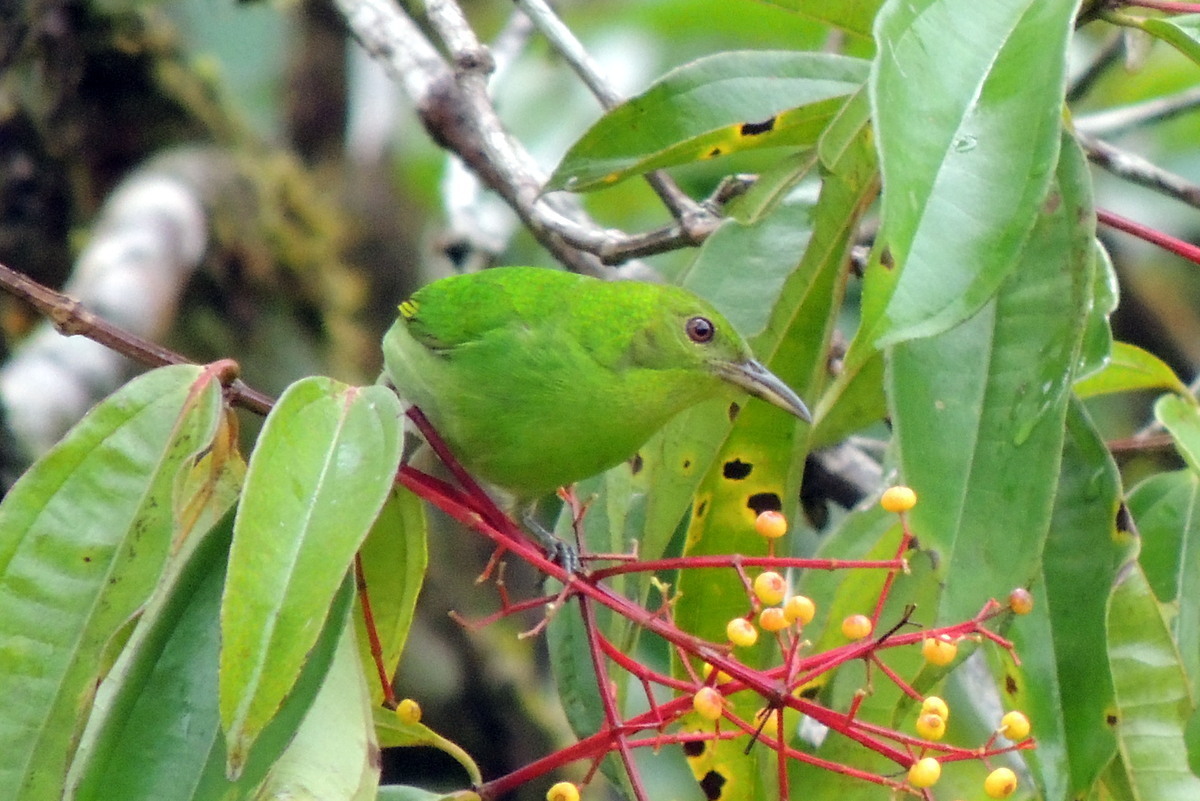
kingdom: Plantae
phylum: Tracheophyta
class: Magnoliopsida
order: Myrtales
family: Melastomataceae
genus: Miconia
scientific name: Miconia longifolia
